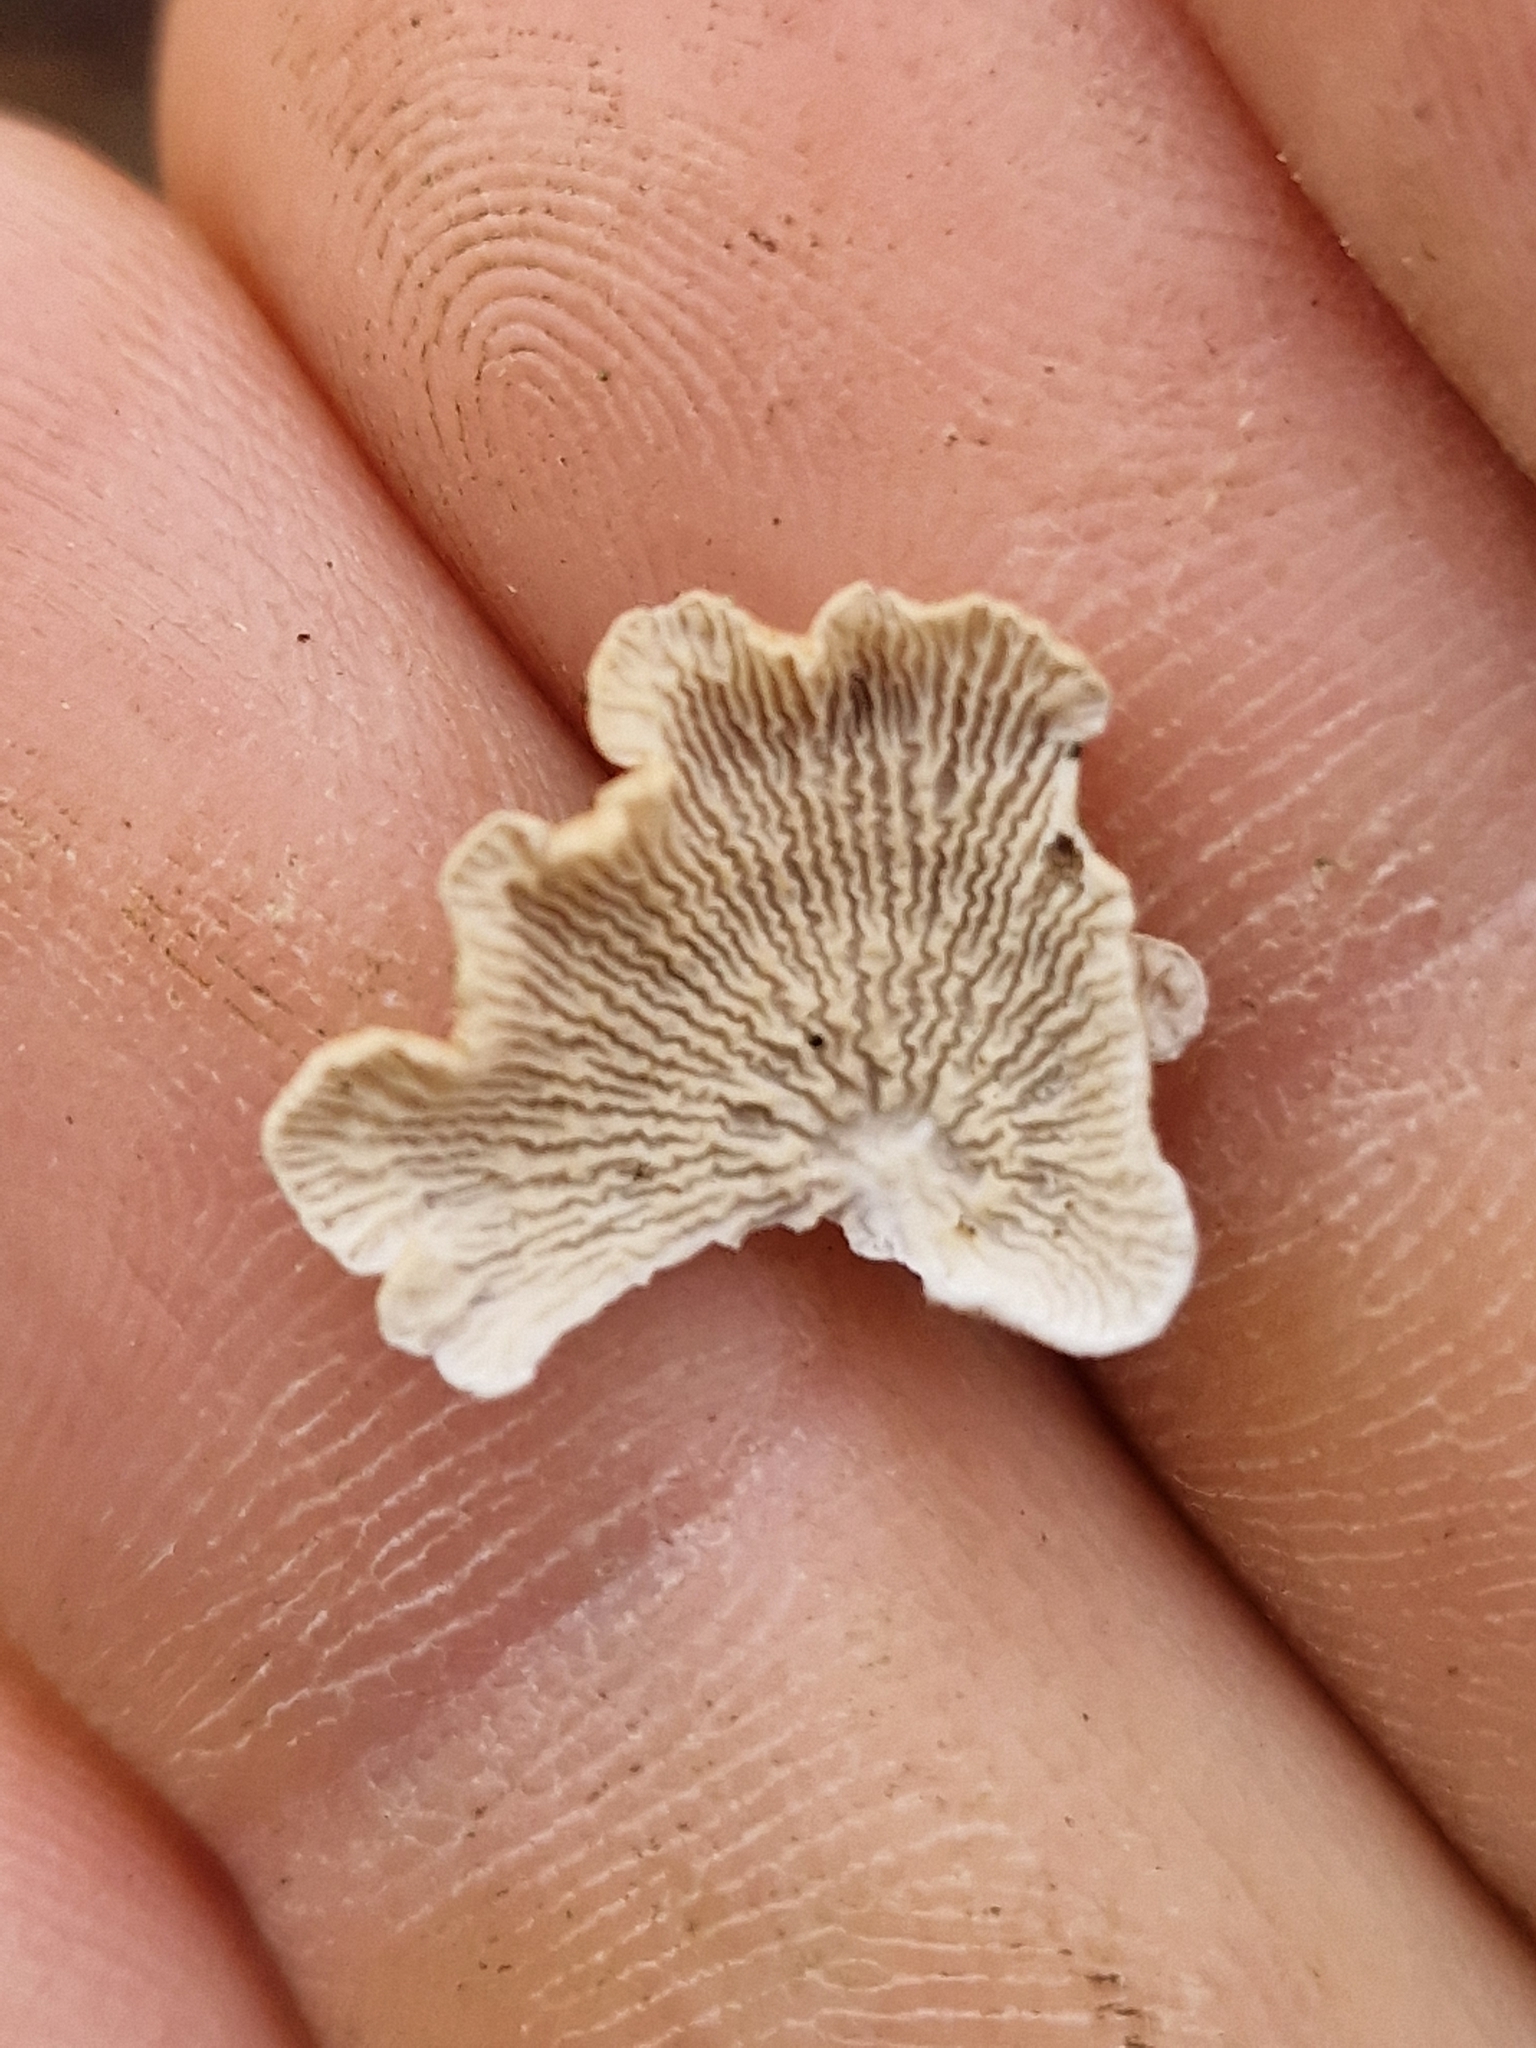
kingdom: Fungi
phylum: Basidiomycota
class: Agaricomycetes
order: Amylocorticiales
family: Amylocorticiaceae
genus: Plicaturopsis
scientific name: Plicaturopsis crispa
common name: Crimped gill
